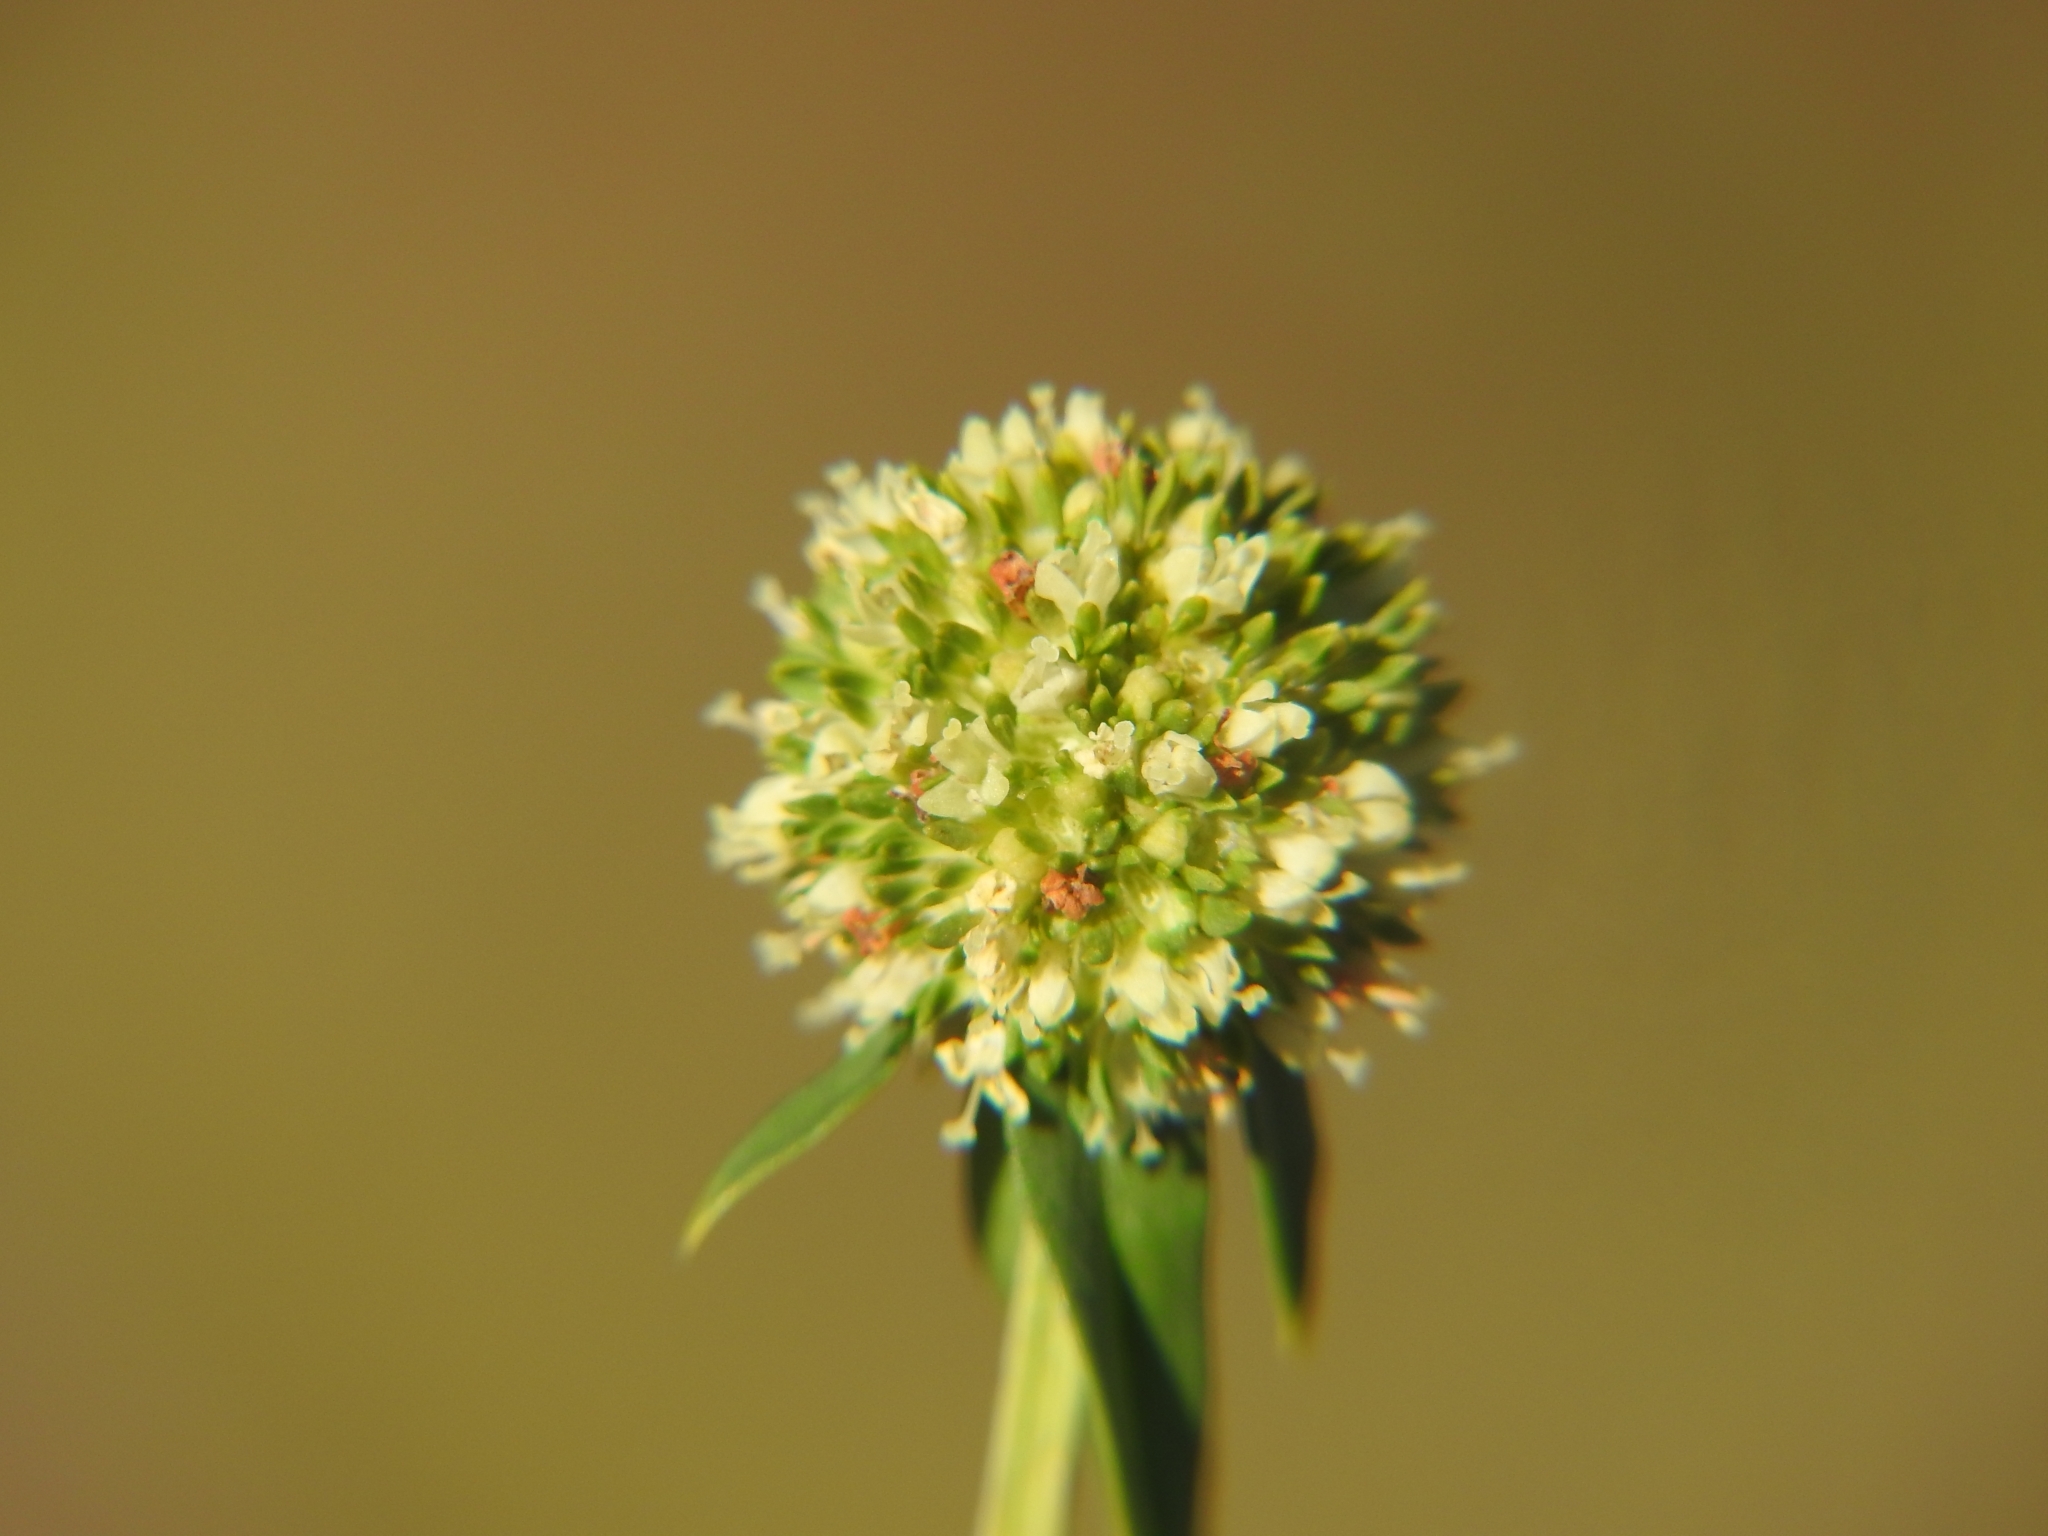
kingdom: Plantae
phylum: Tracheophyta
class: Magnoliopsida
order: Gentianales
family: Rubiaceae
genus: Spermacoce
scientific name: Spermacoce verticillata
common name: Shrubby false buttonweed
